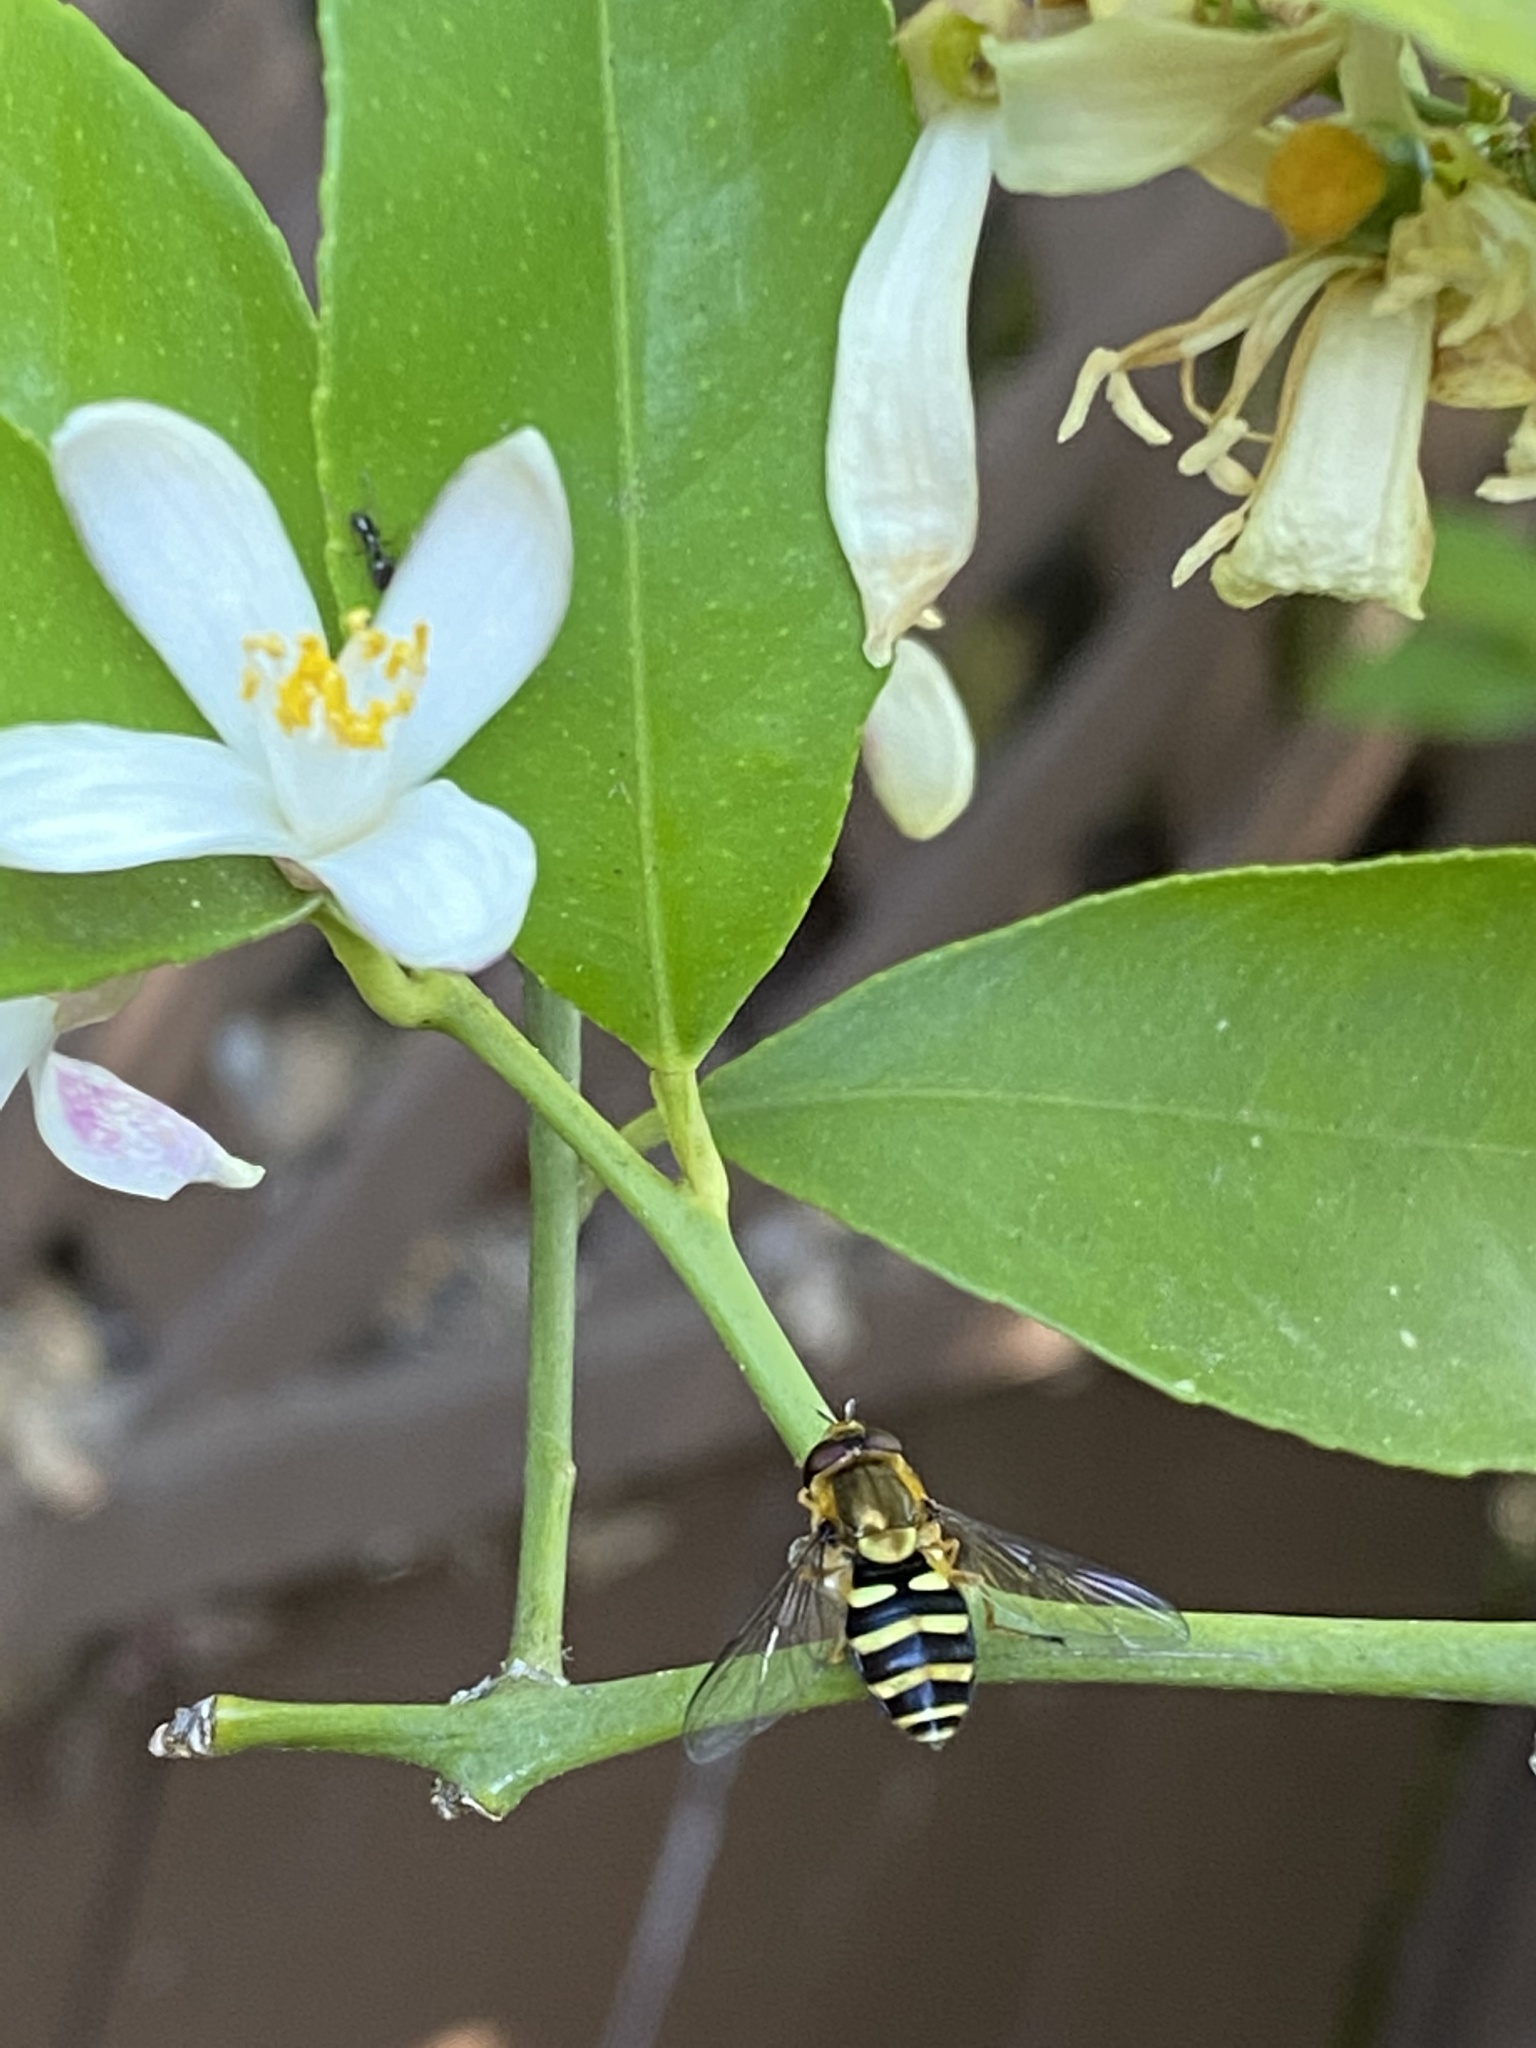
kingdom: Animalia
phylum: Arthropoda
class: Insecta
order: Diptera
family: Syrphidae
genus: Syrphus
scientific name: Syrphus opinator
